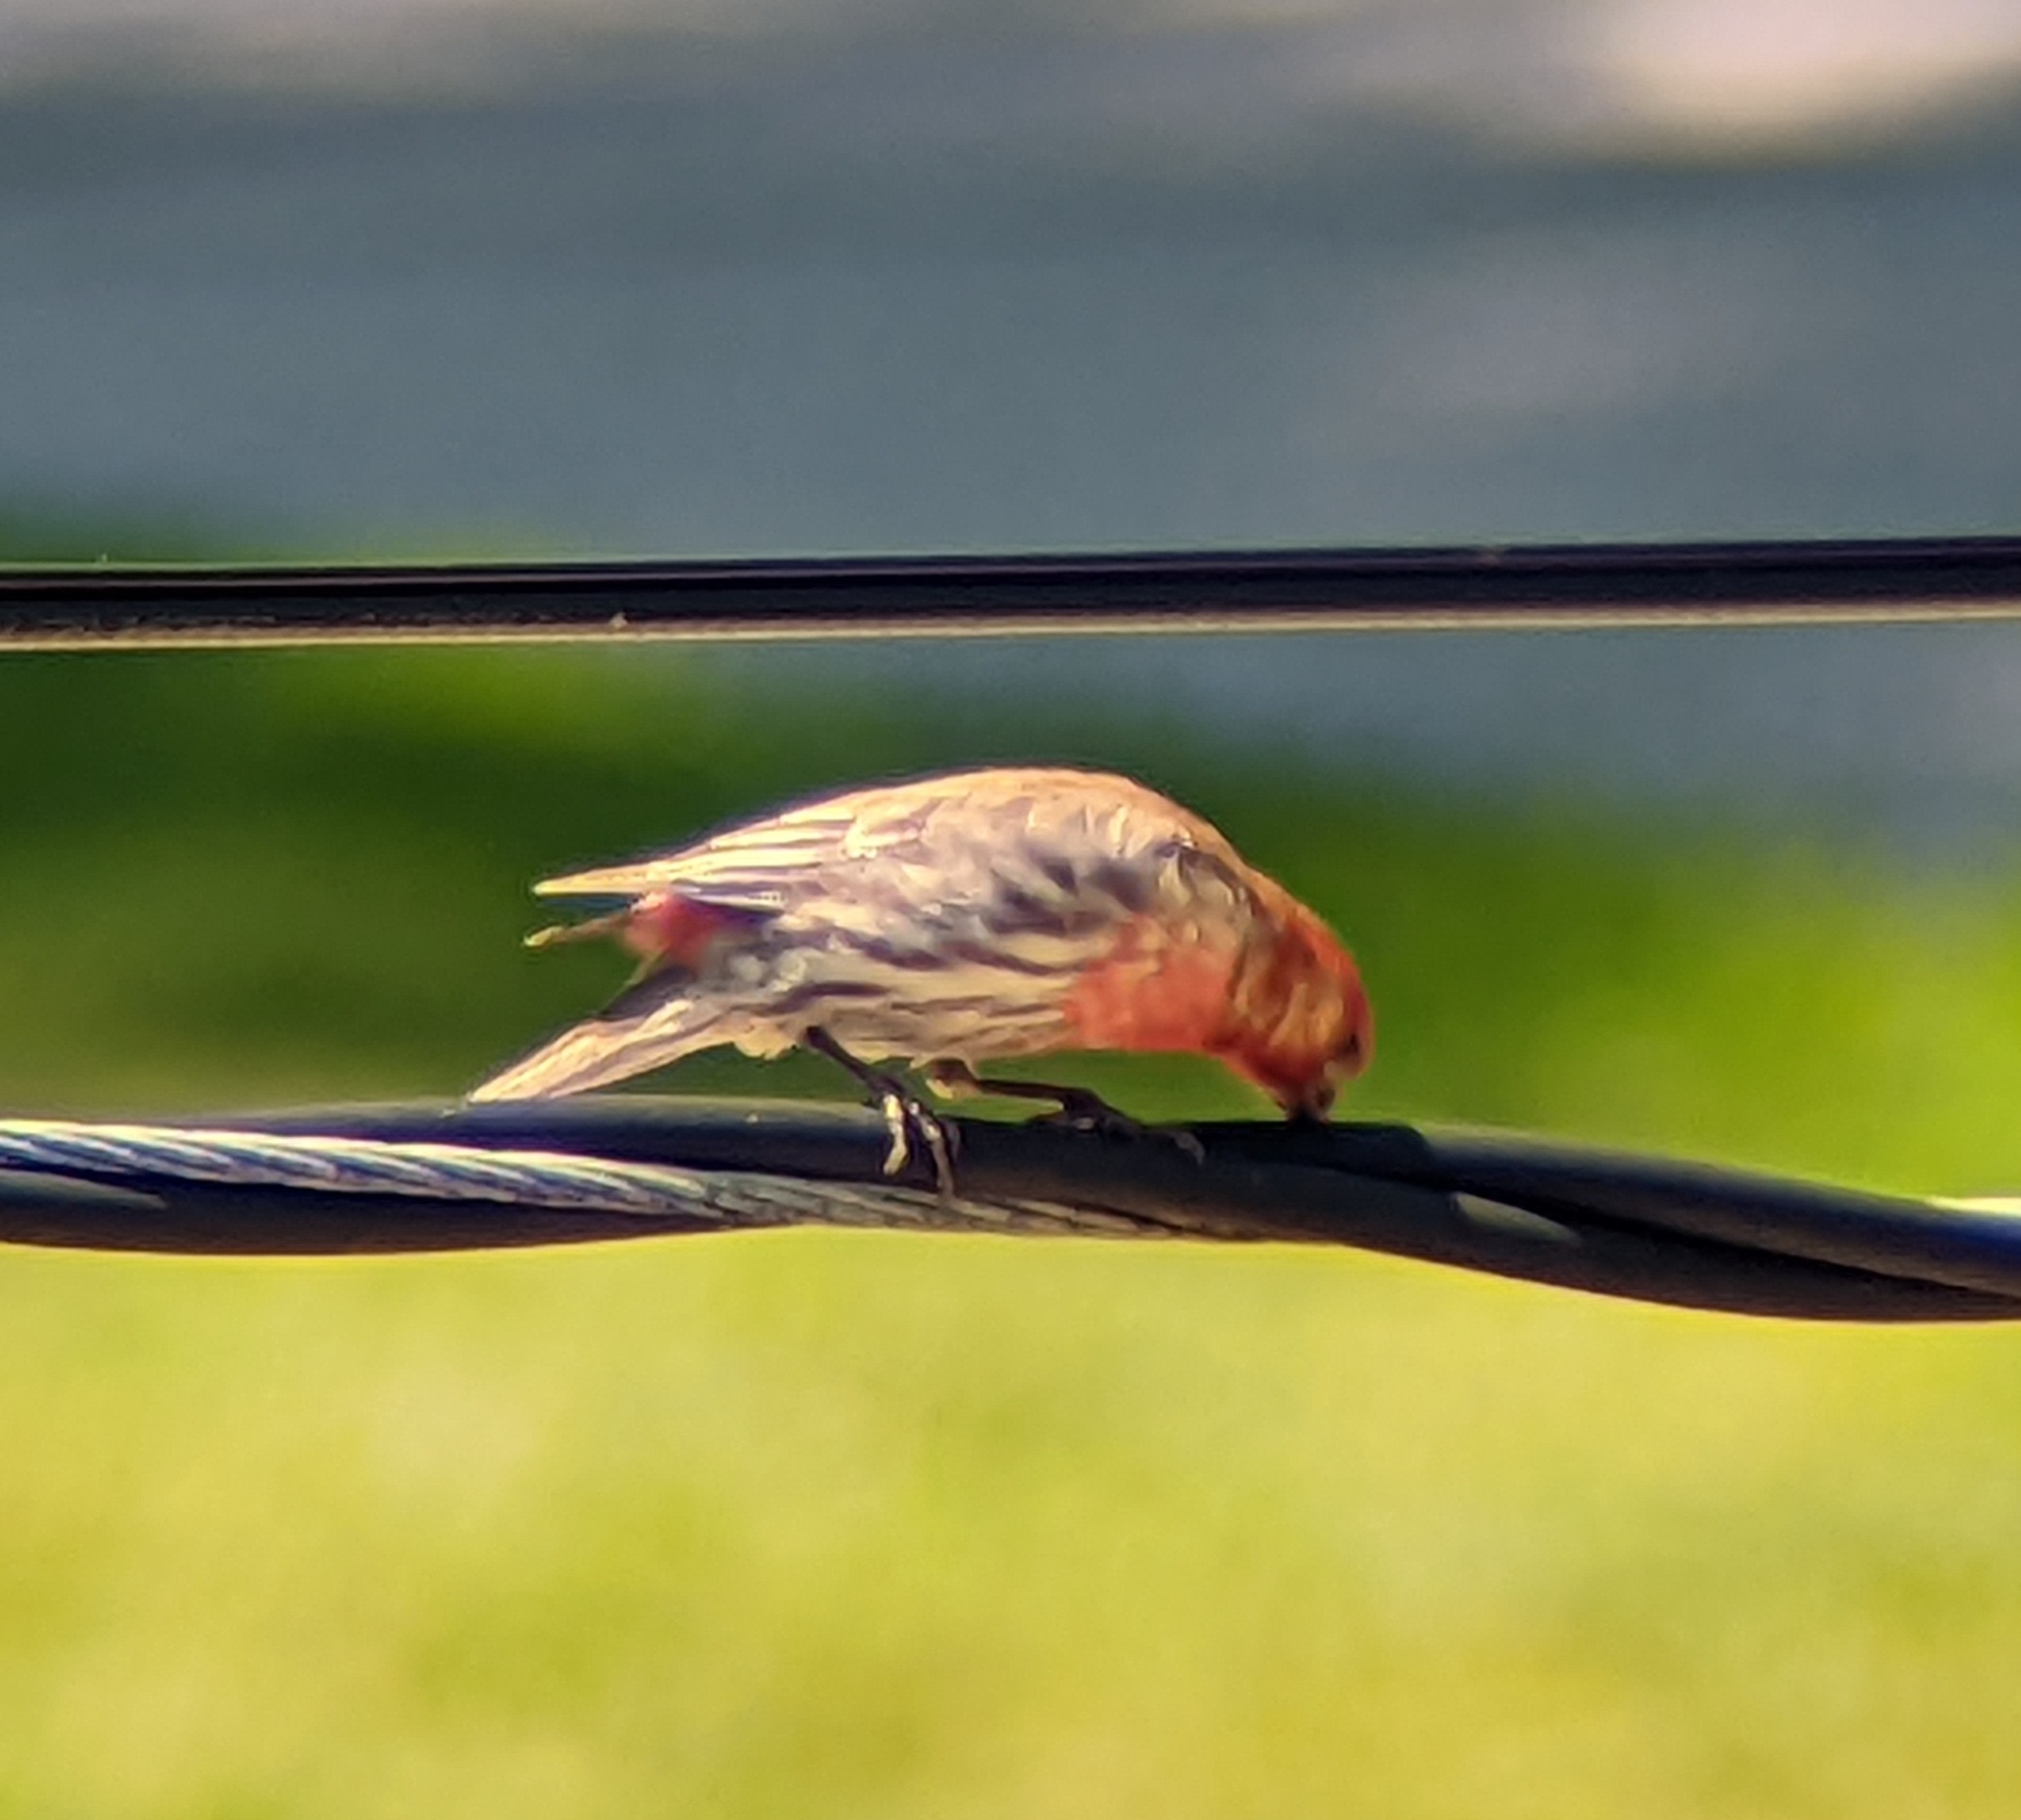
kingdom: Animalia
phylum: Chordata
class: Aves
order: Passeriformes
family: Fringillidae
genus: Haemorhous
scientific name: Haemorhous mexicanus
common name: House finch
